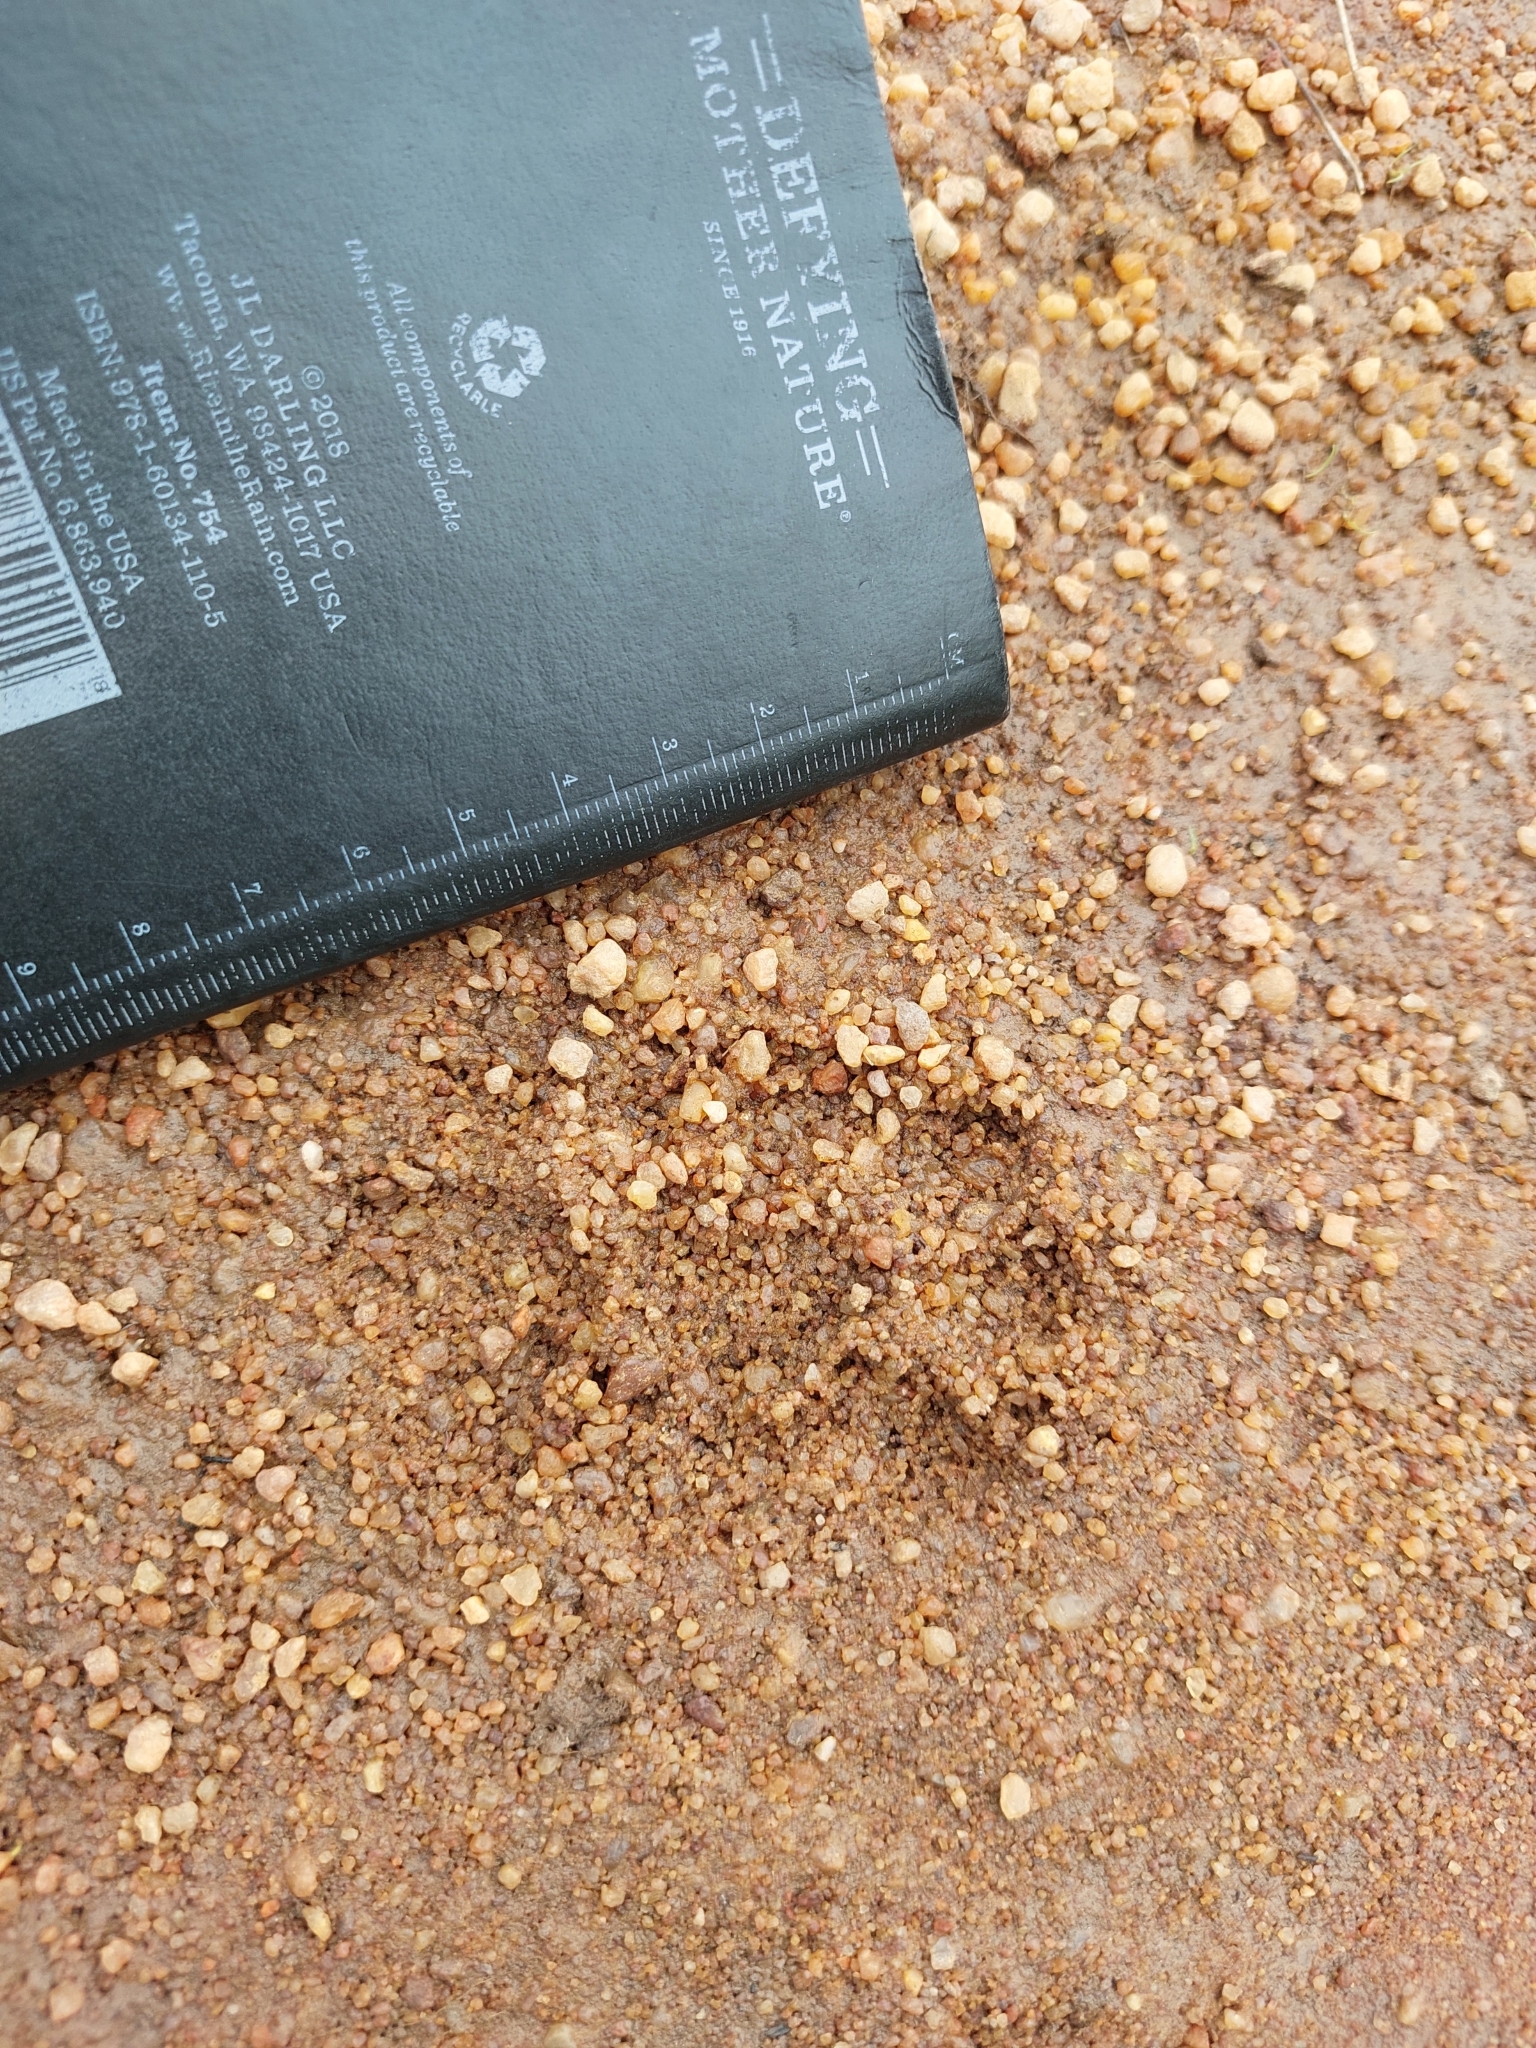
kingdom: Animalia
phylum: Chordata
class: Mammalia
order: Carnivora
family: Viverridae
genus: Civettictis
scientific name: Civettictis civetta
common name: African civet
